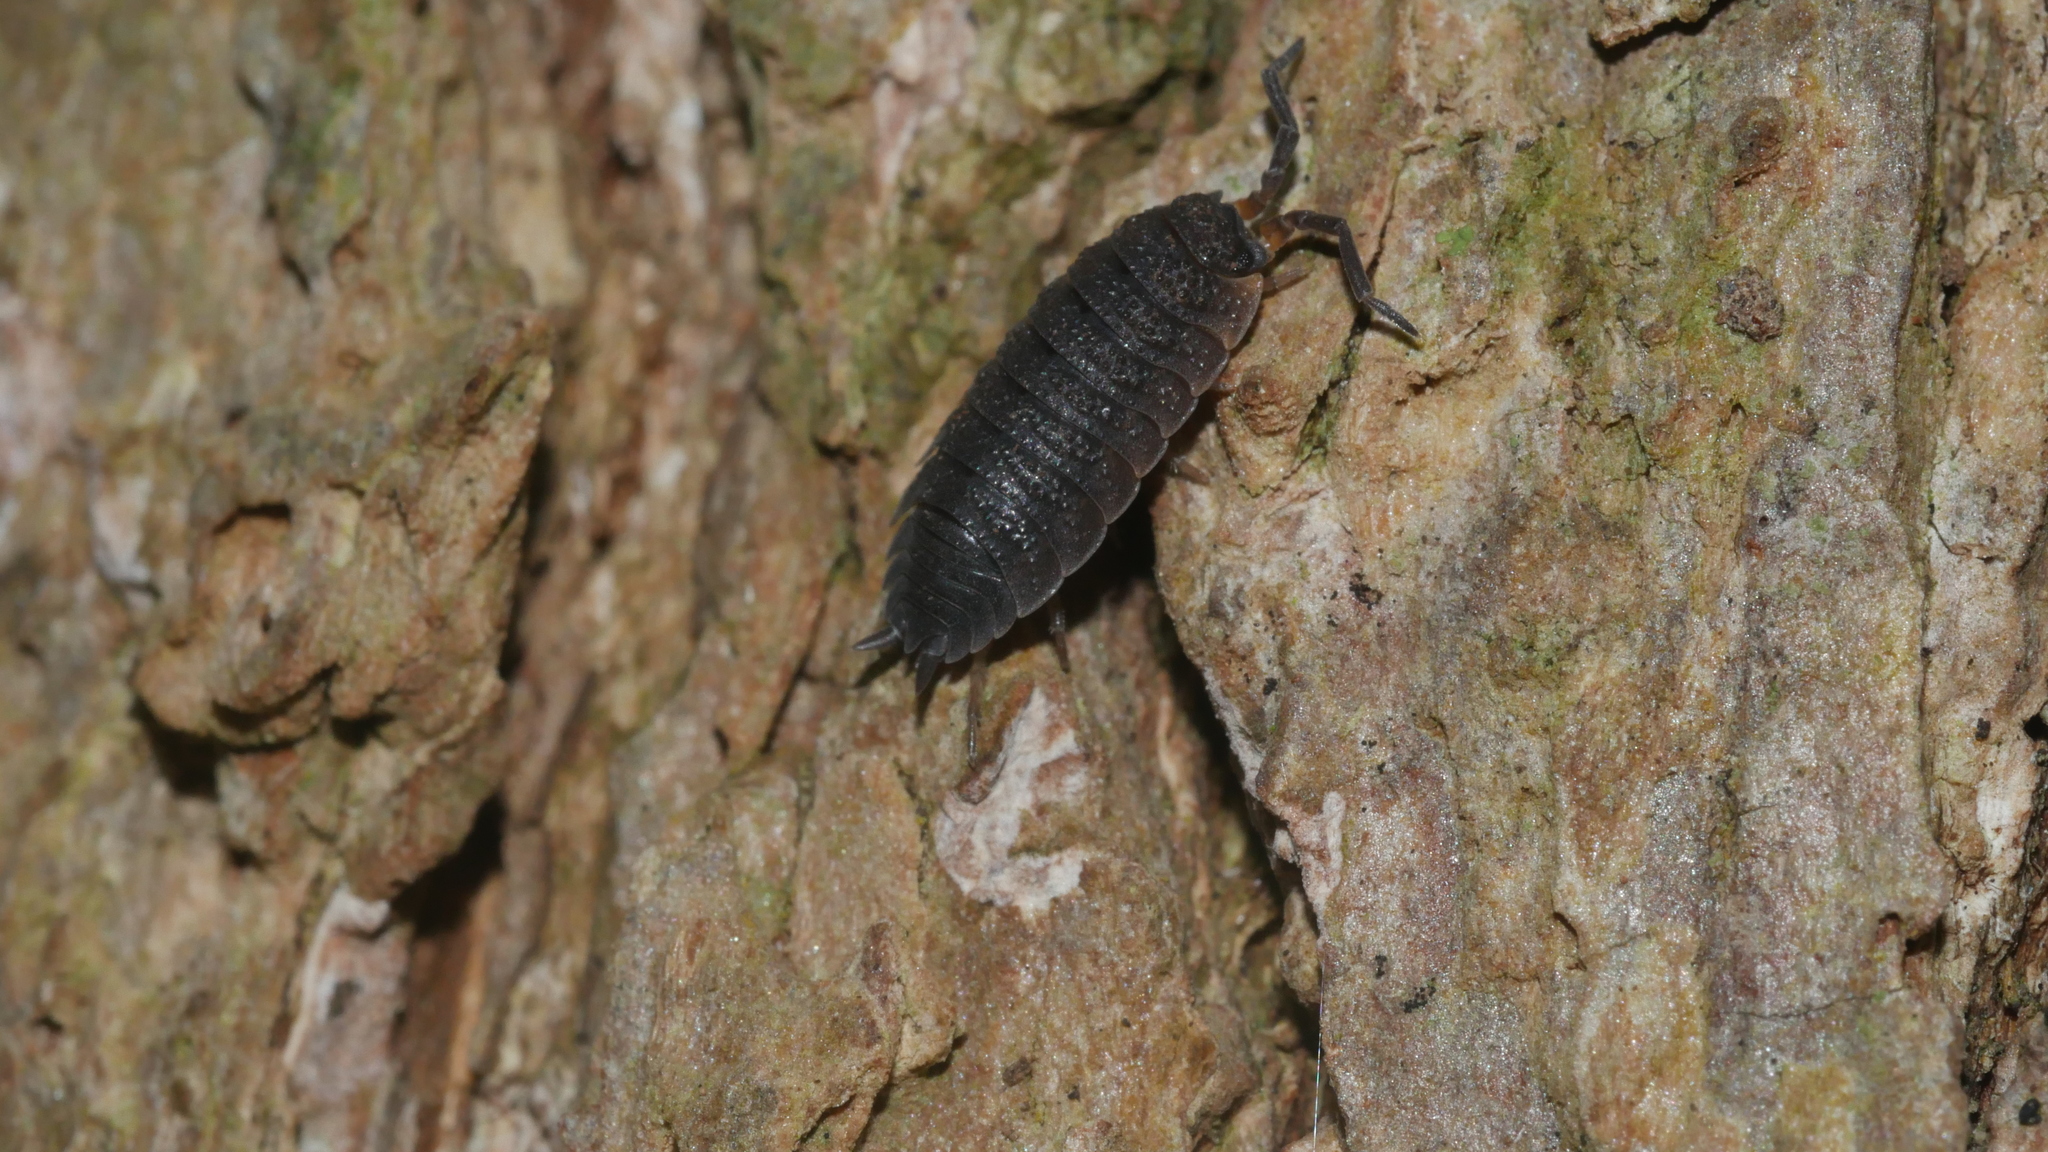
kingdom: Animalia
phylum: Arthropoda
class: Malacostraca
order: Isopoda
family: Porcellionidae
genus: Porcellio
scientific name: Porcellio scaber
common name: Common rough woodlouse
